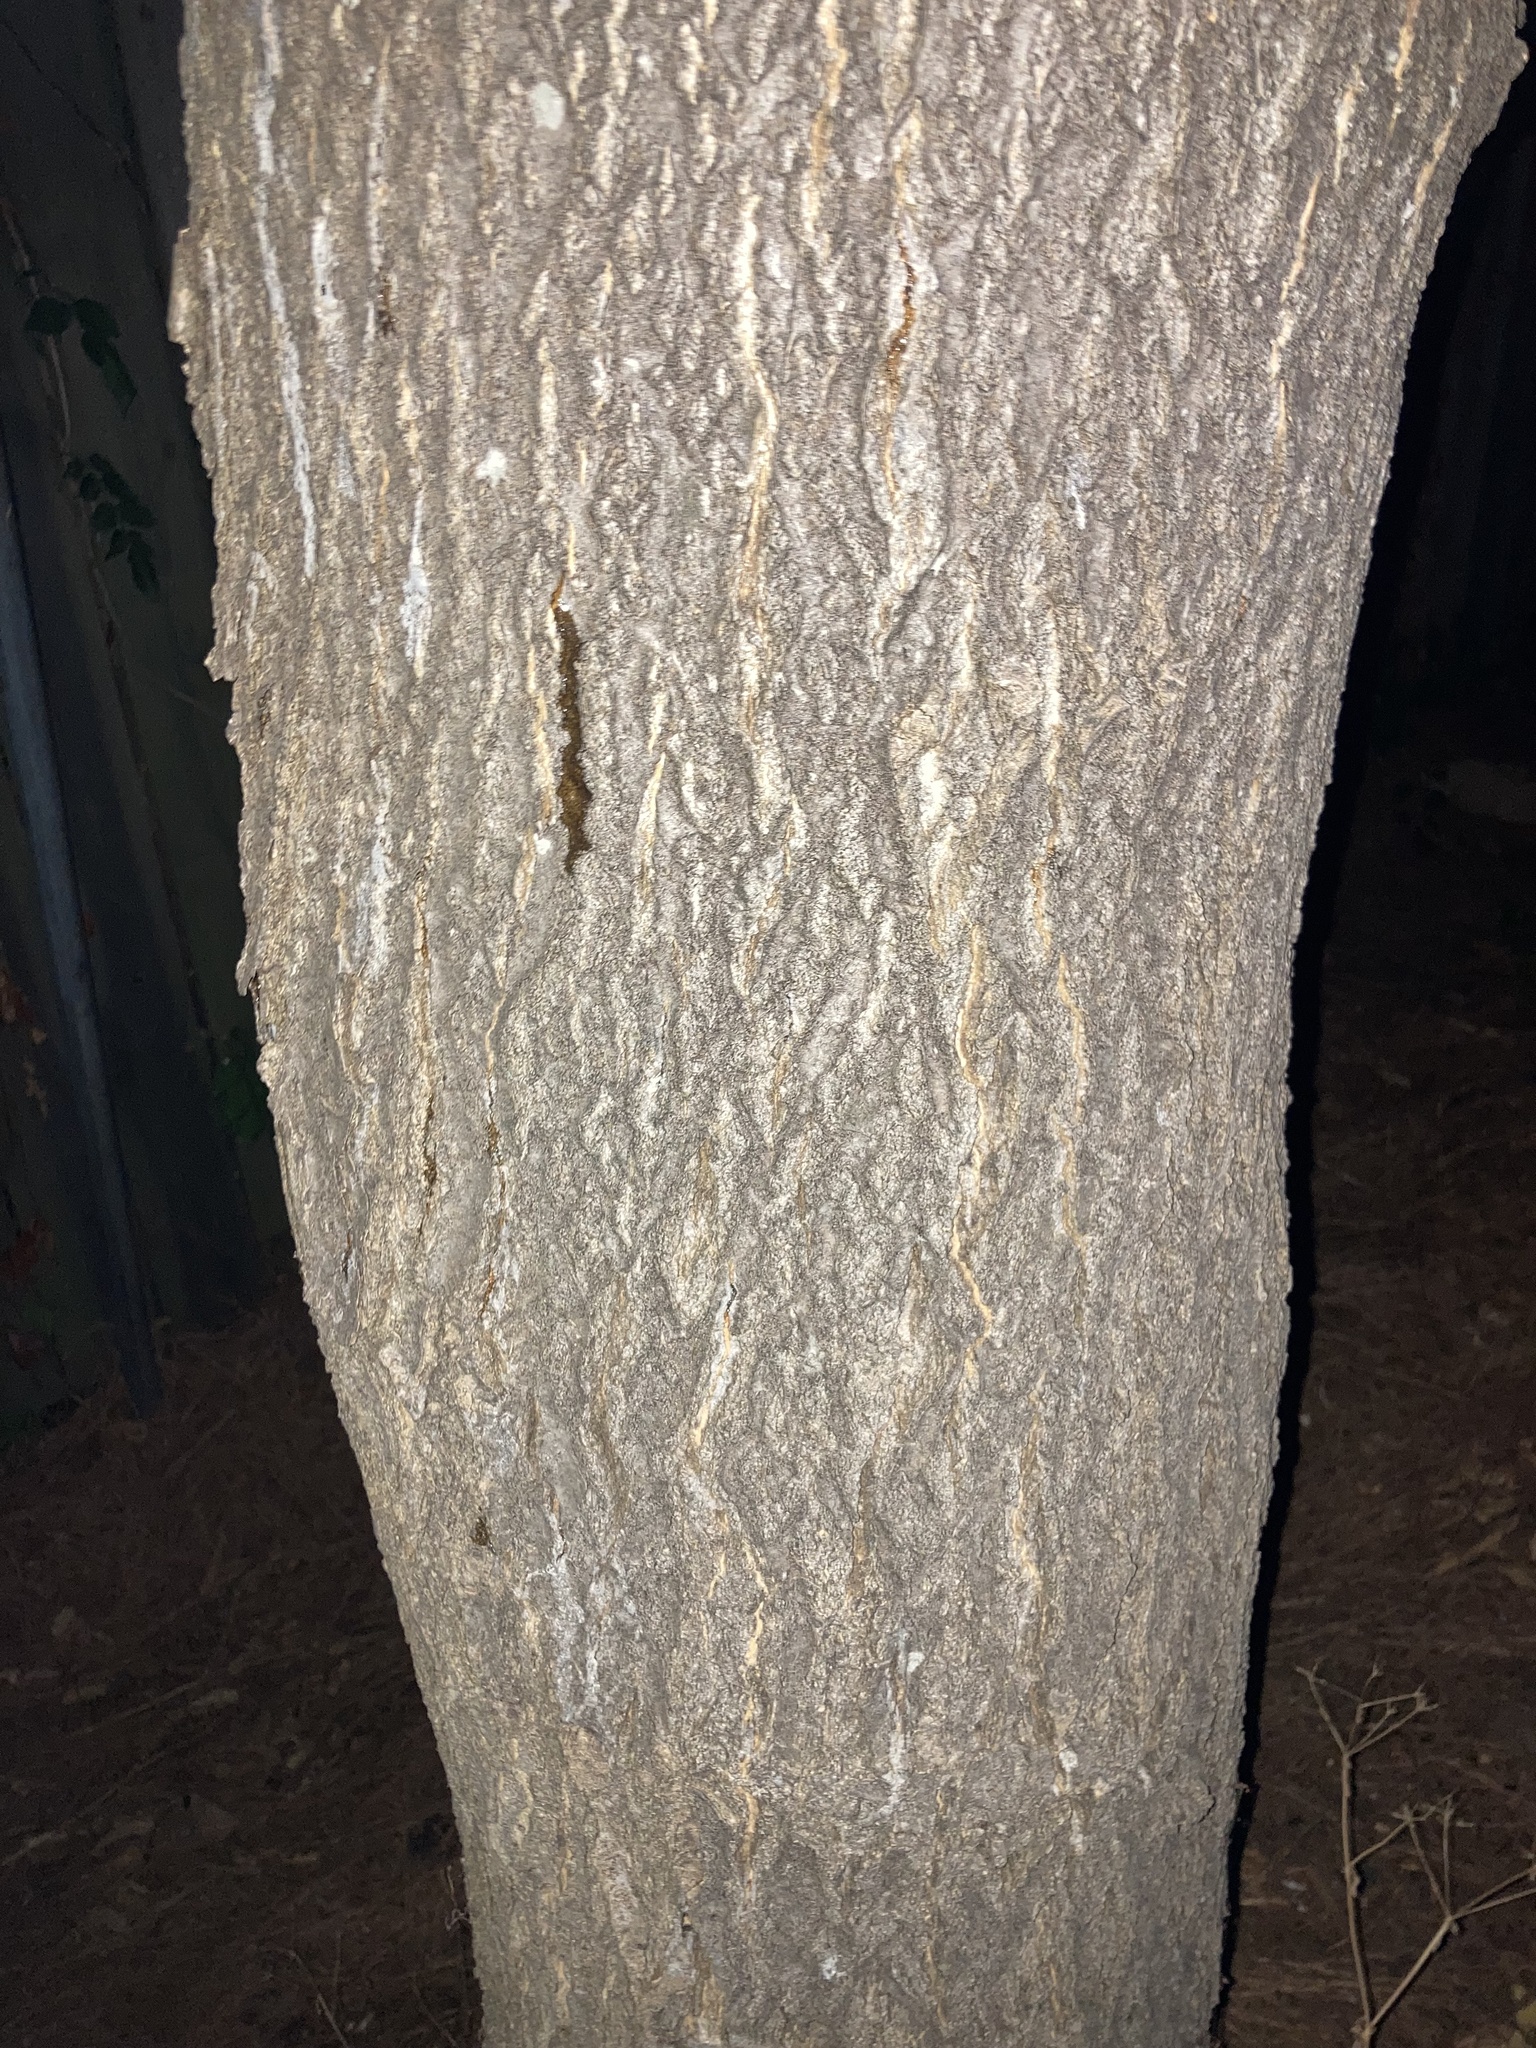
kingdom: Plantae
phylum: Tracheophyta
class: Magnoliopsida
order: Sapindales
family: Simaroubaceae
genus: Ailanthus
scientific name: Ailanthus altissima
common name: Tree-of-heaven
